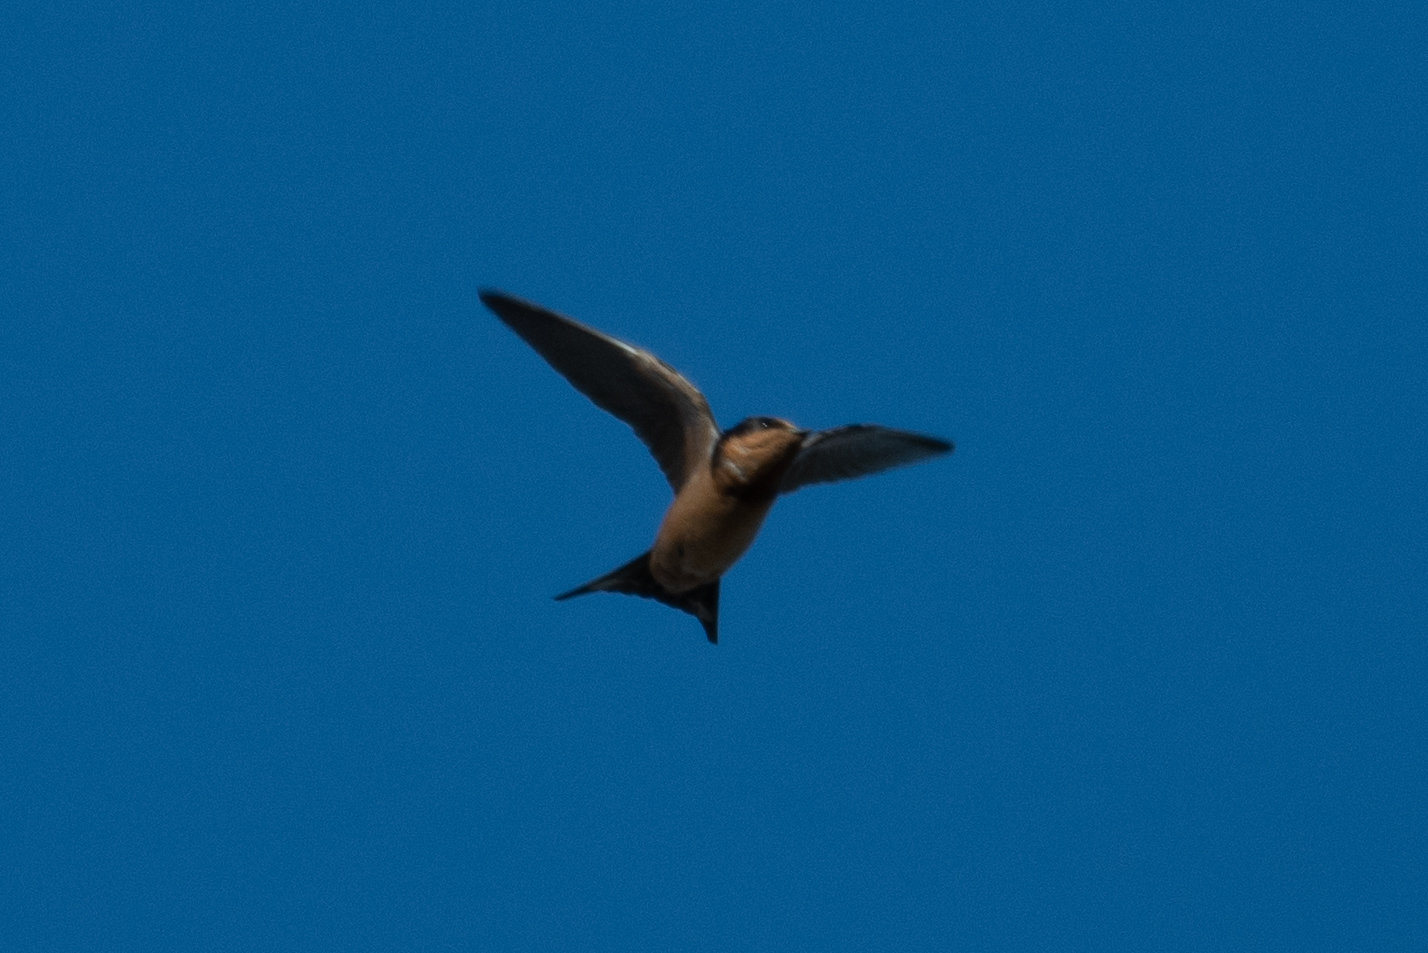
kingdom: Animalia
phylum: Chordata
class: Aves
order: Passeriformes
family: Hirundinidae
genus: Hirundo
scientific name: Hirundo rustica
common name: Barn swallow
